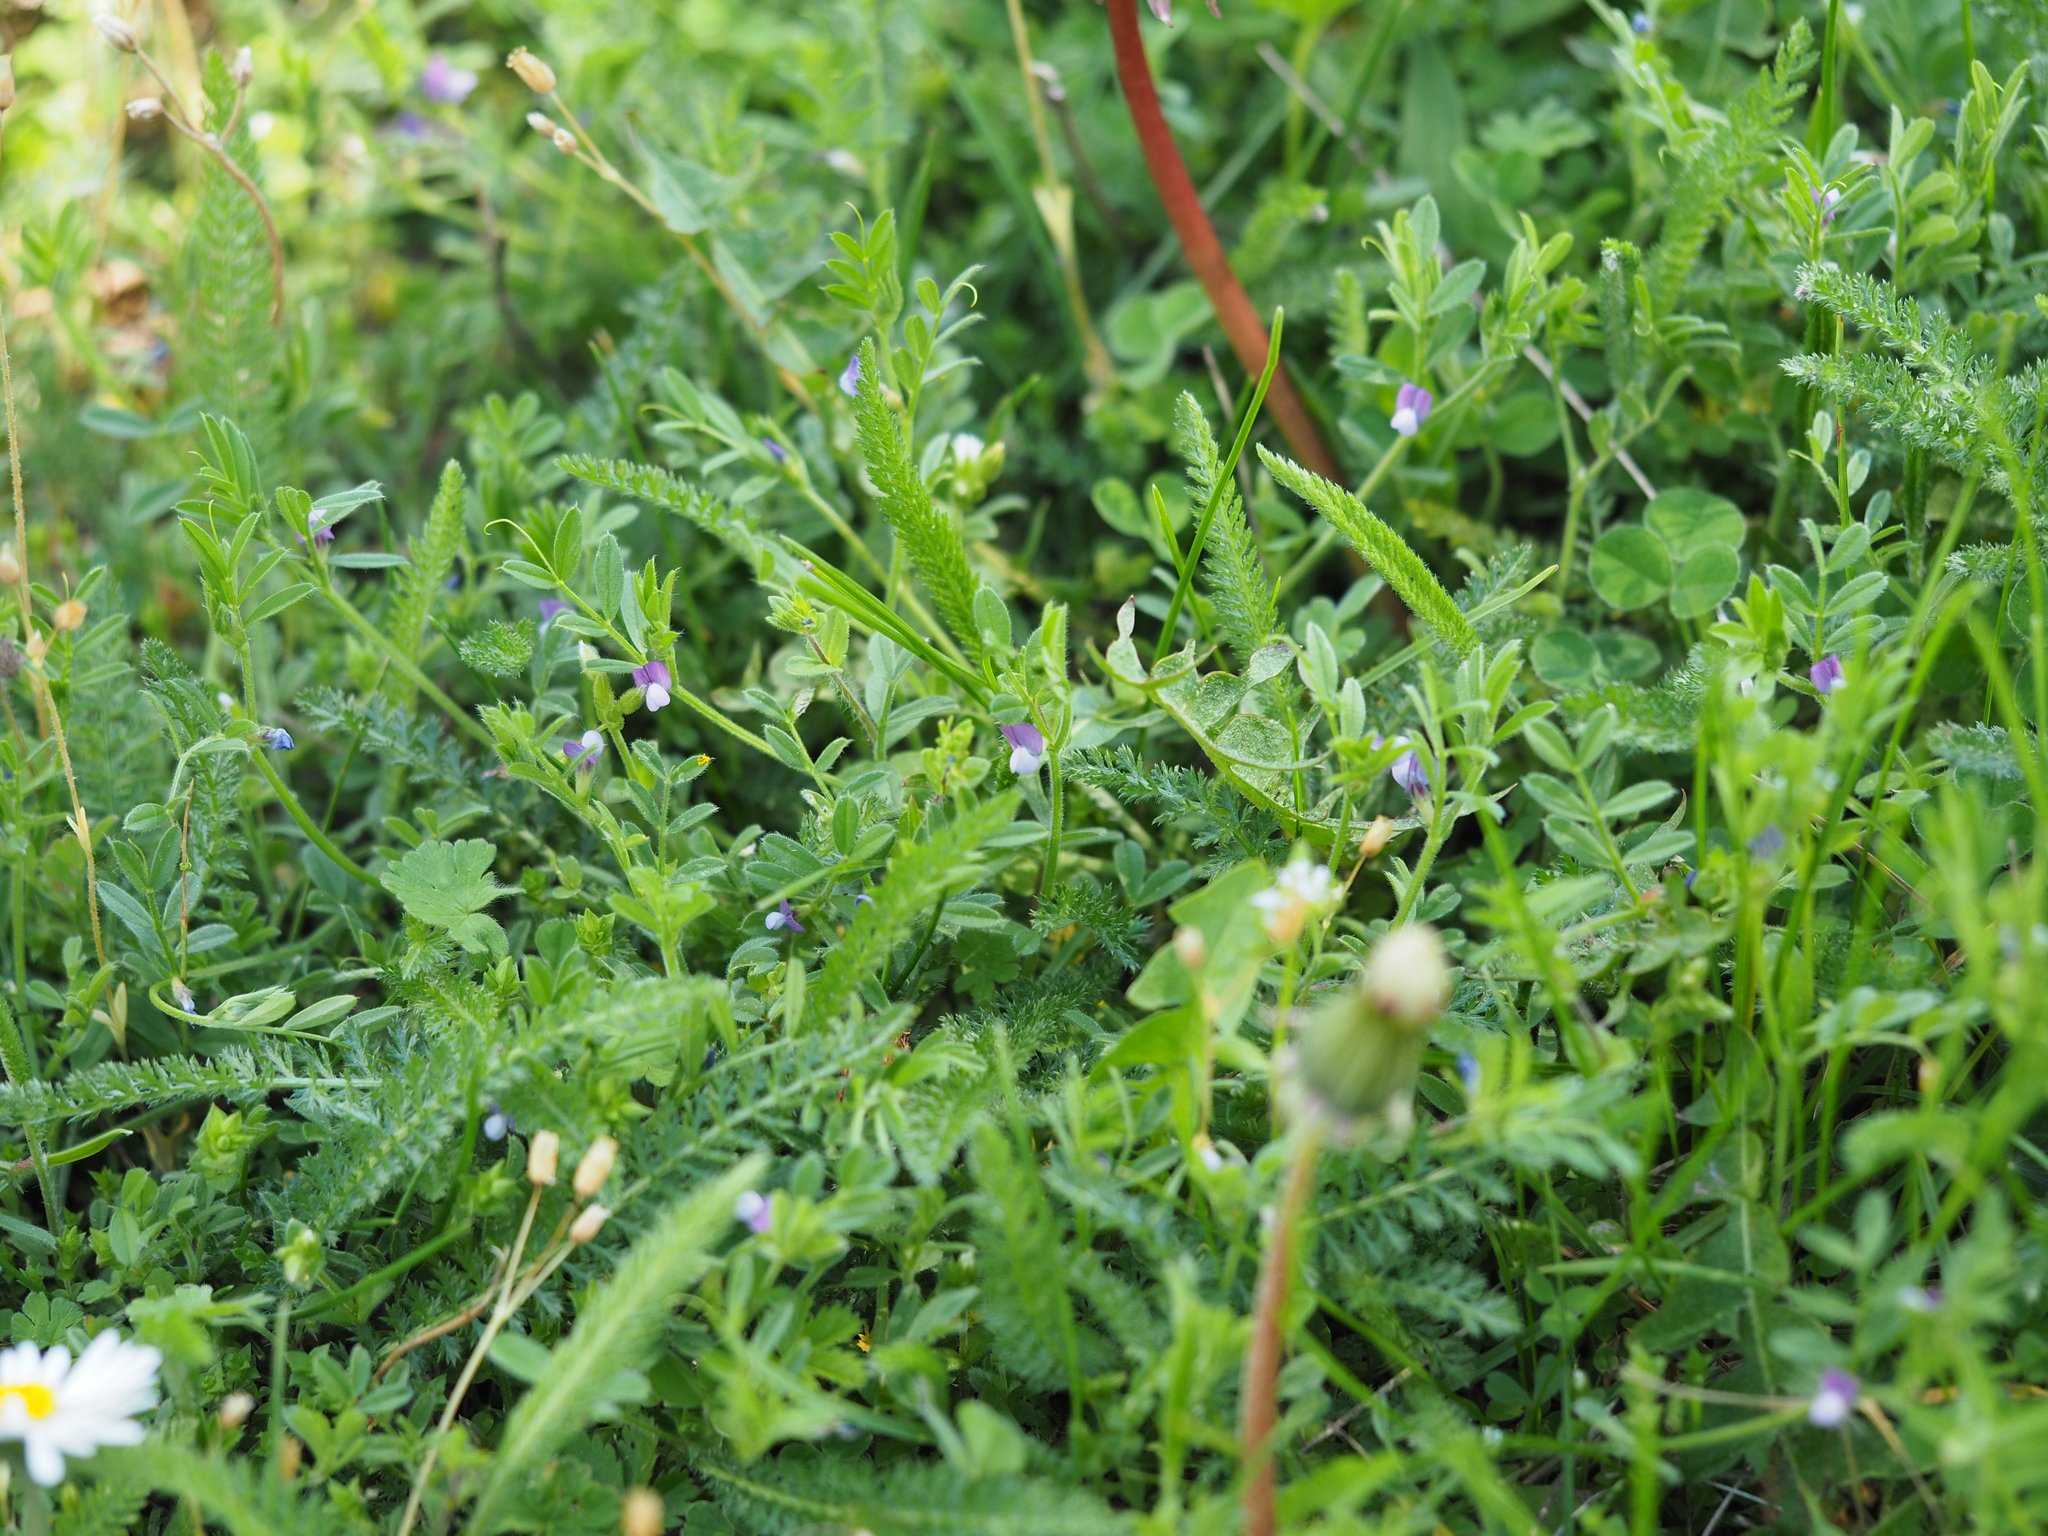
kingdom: Plantae
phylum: Tracheophyta
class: Magnoliopsida
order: Fabales
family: Fabaceae
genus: Vicia
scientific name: Vicia lathyroides
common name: Spring vetch
